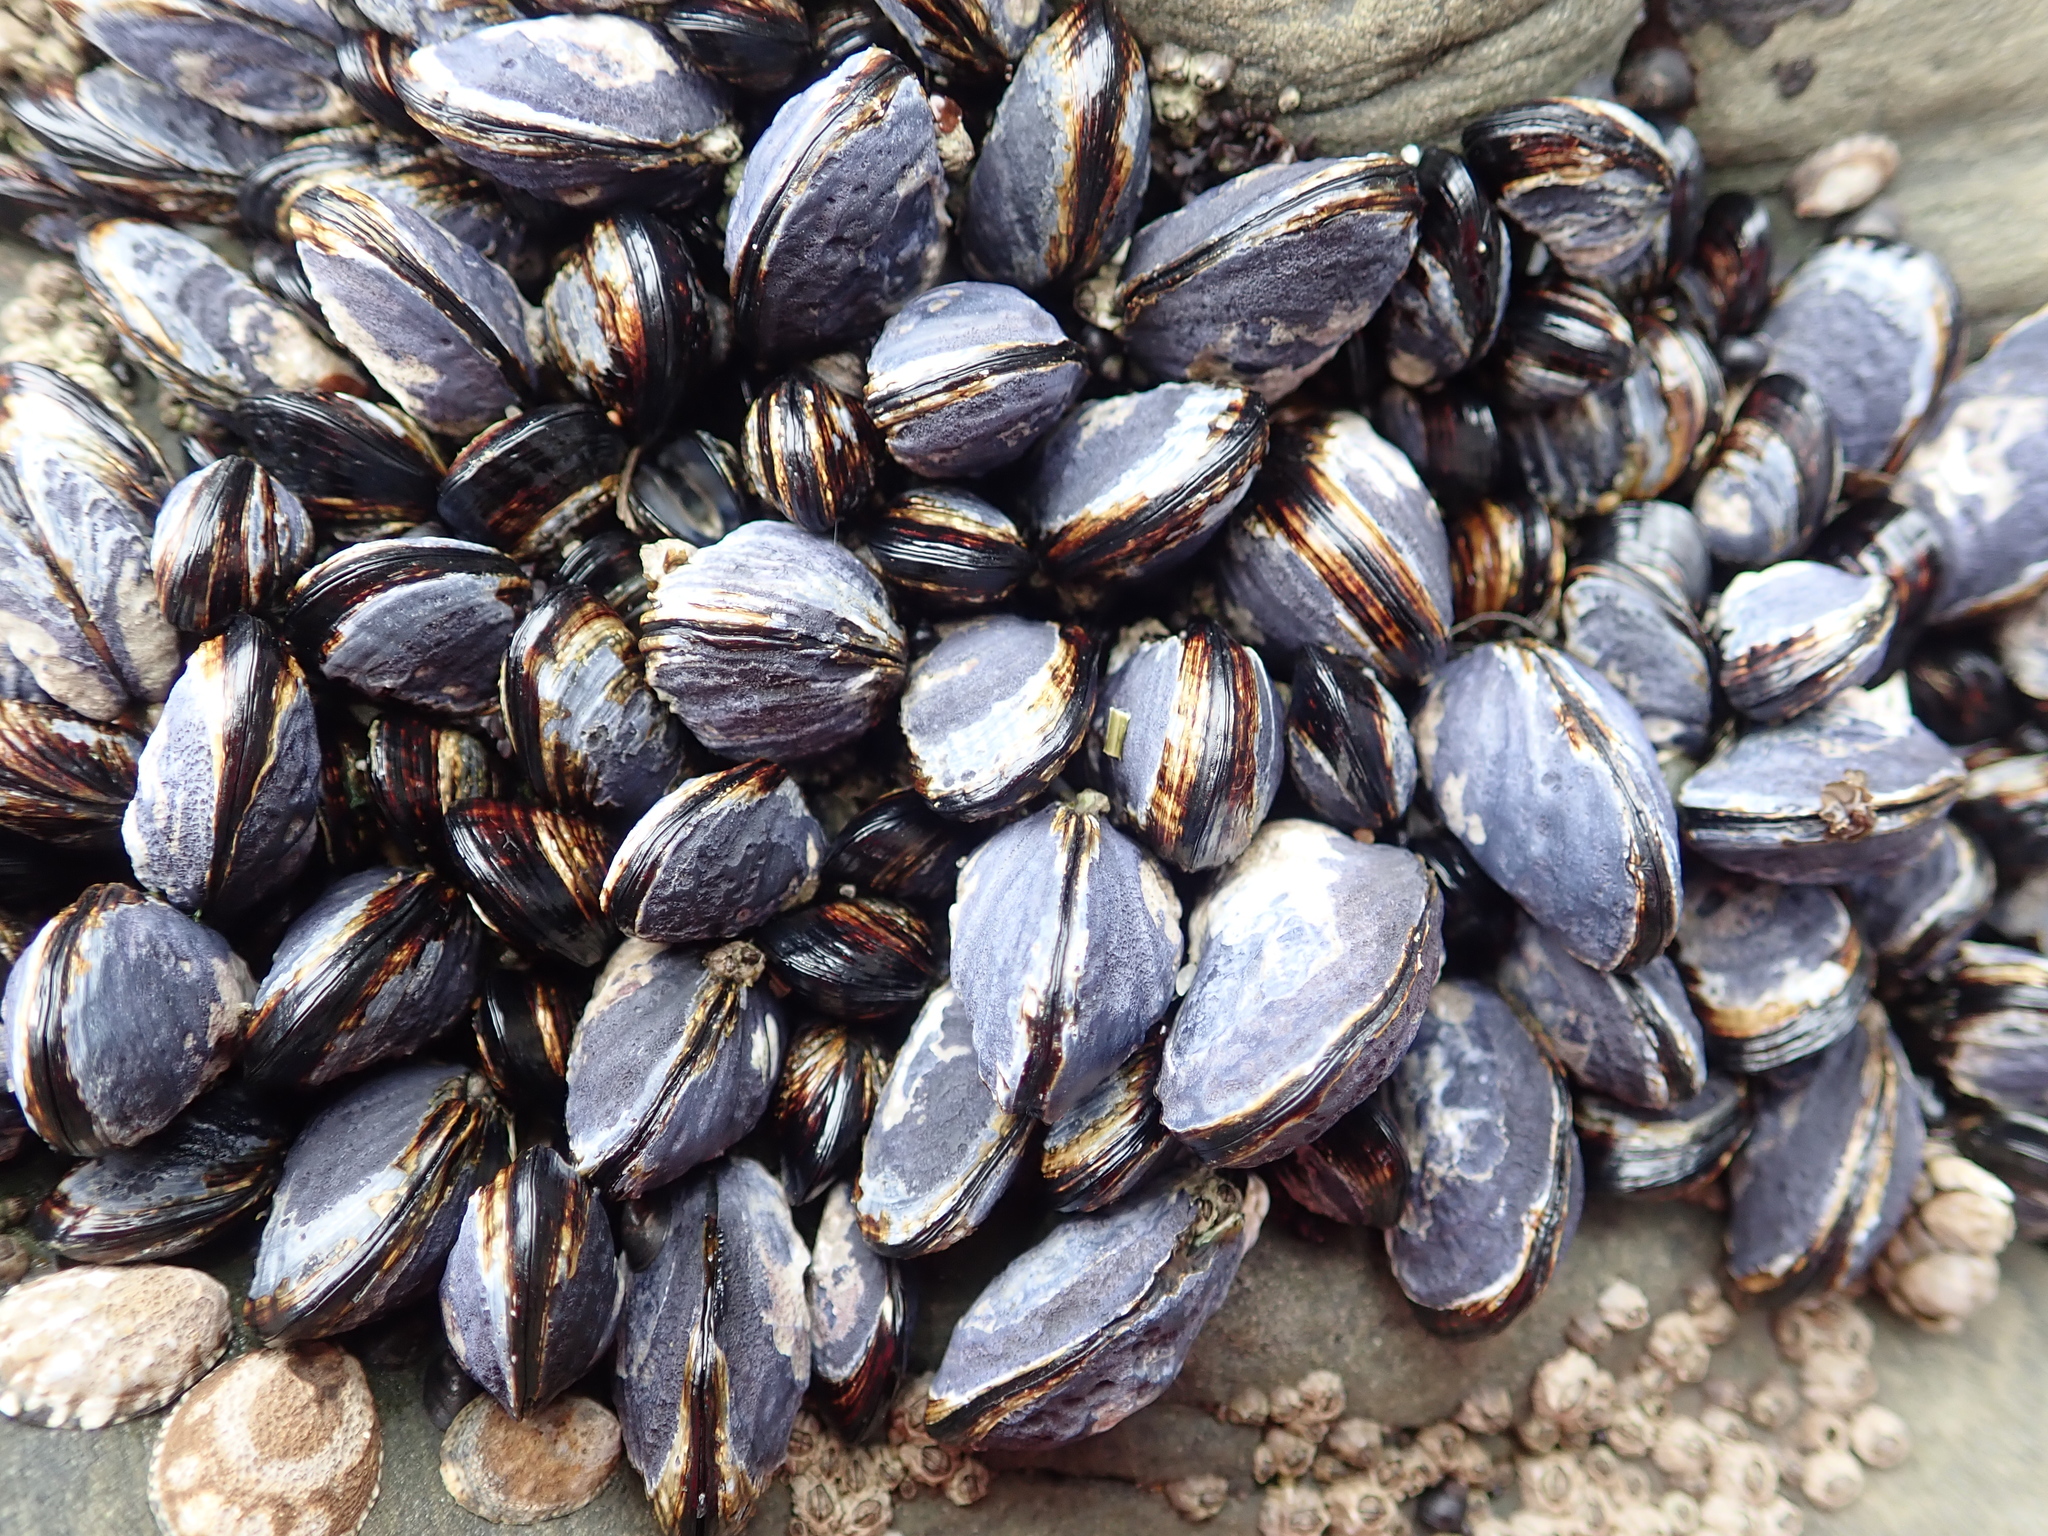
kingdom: Animalia
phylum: Mollusca
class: Bivalvia
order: Mytilida
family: Mytilidae
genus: Mytilus
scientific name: Mytilus californianus
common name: California mussel
